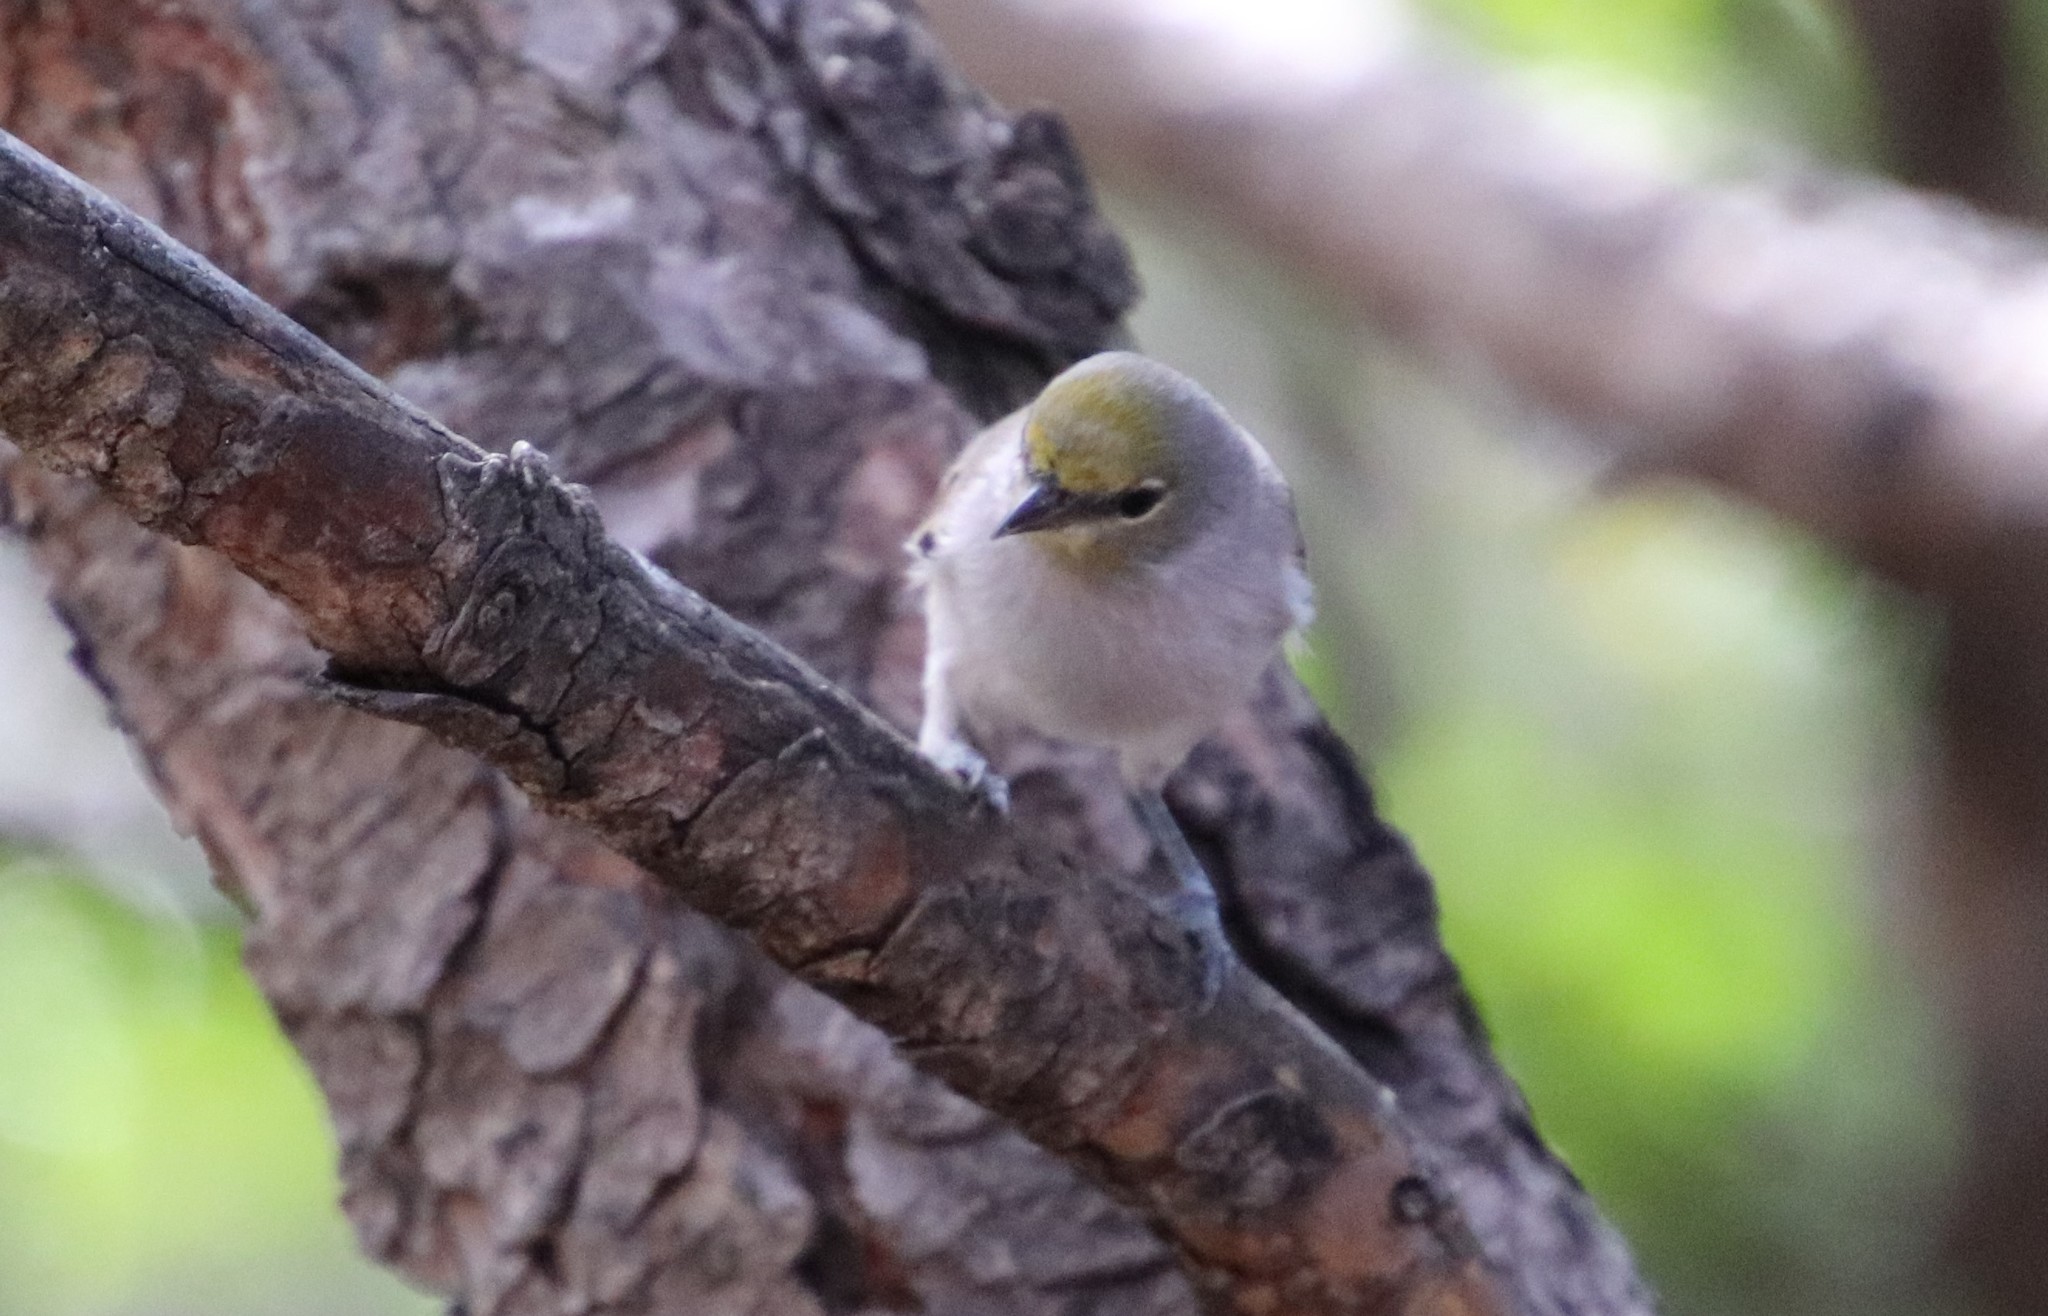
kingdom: Animalia
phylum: Chordata
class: Aves
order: Passeriformes
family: Remizidae
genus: Auriparus
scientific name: Auriparus flaviceps
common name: Verdin
